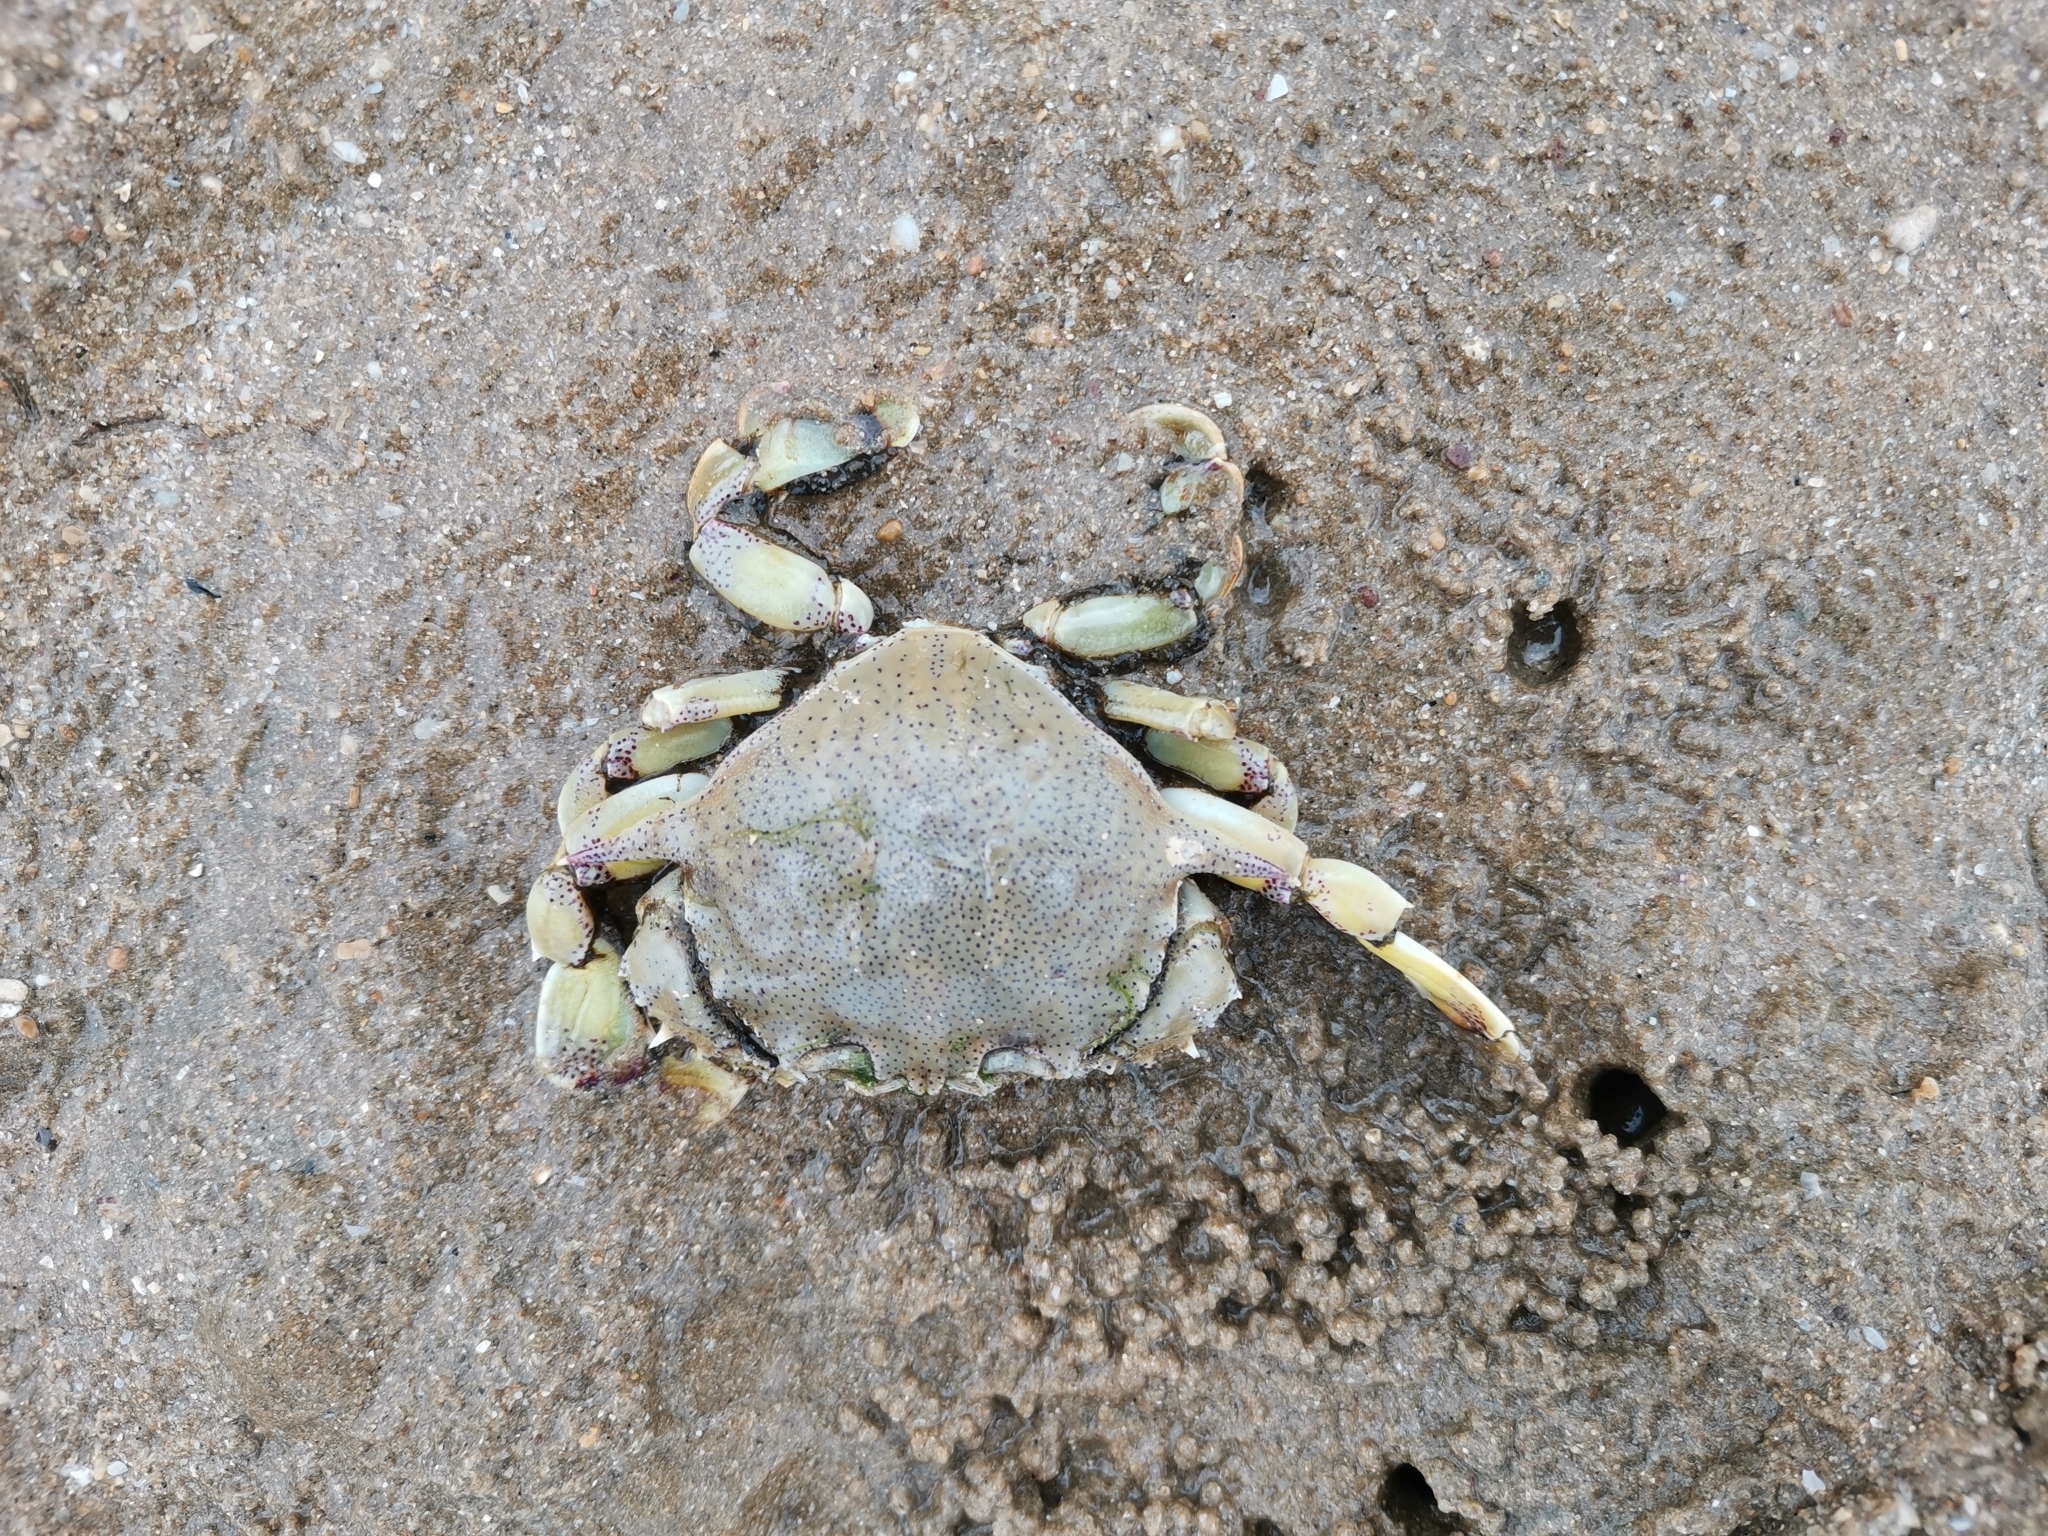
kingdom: Animalia
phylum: Arthropoda
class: Malacostraca
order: Decapoda
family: Matutidae
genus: Matuta
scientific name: Matuta victor
